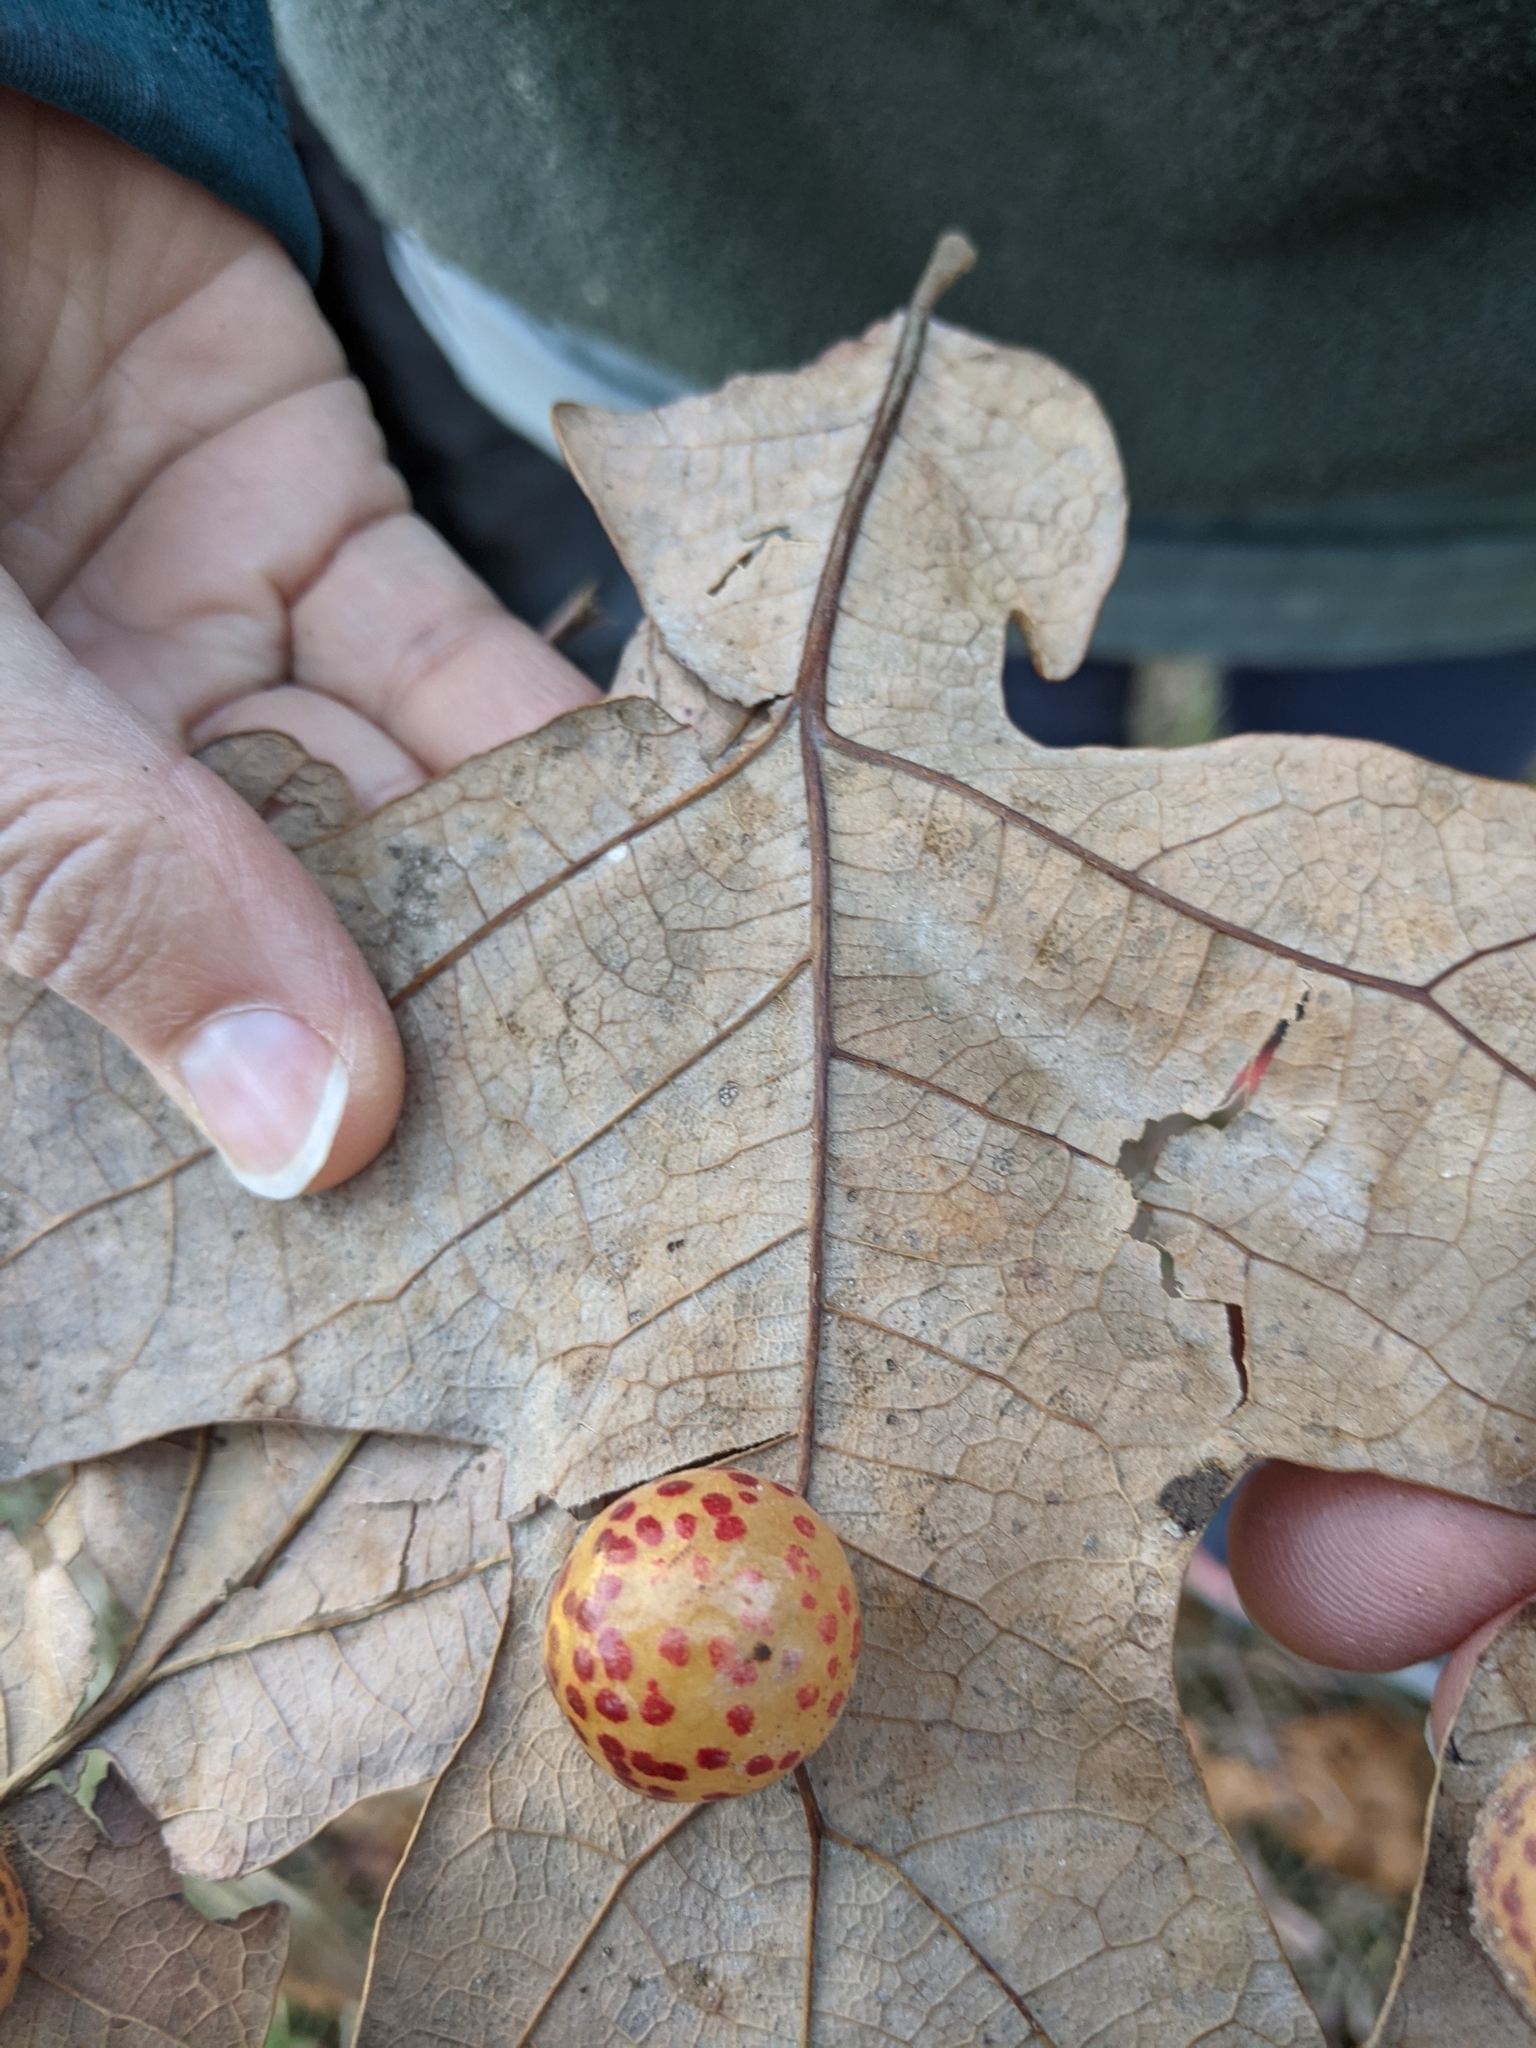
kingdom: Animalia
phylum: Arthropoda
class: Insecta
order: Hymenoptera
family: Cynipidae
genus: Atrusca
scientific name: Atrusca
